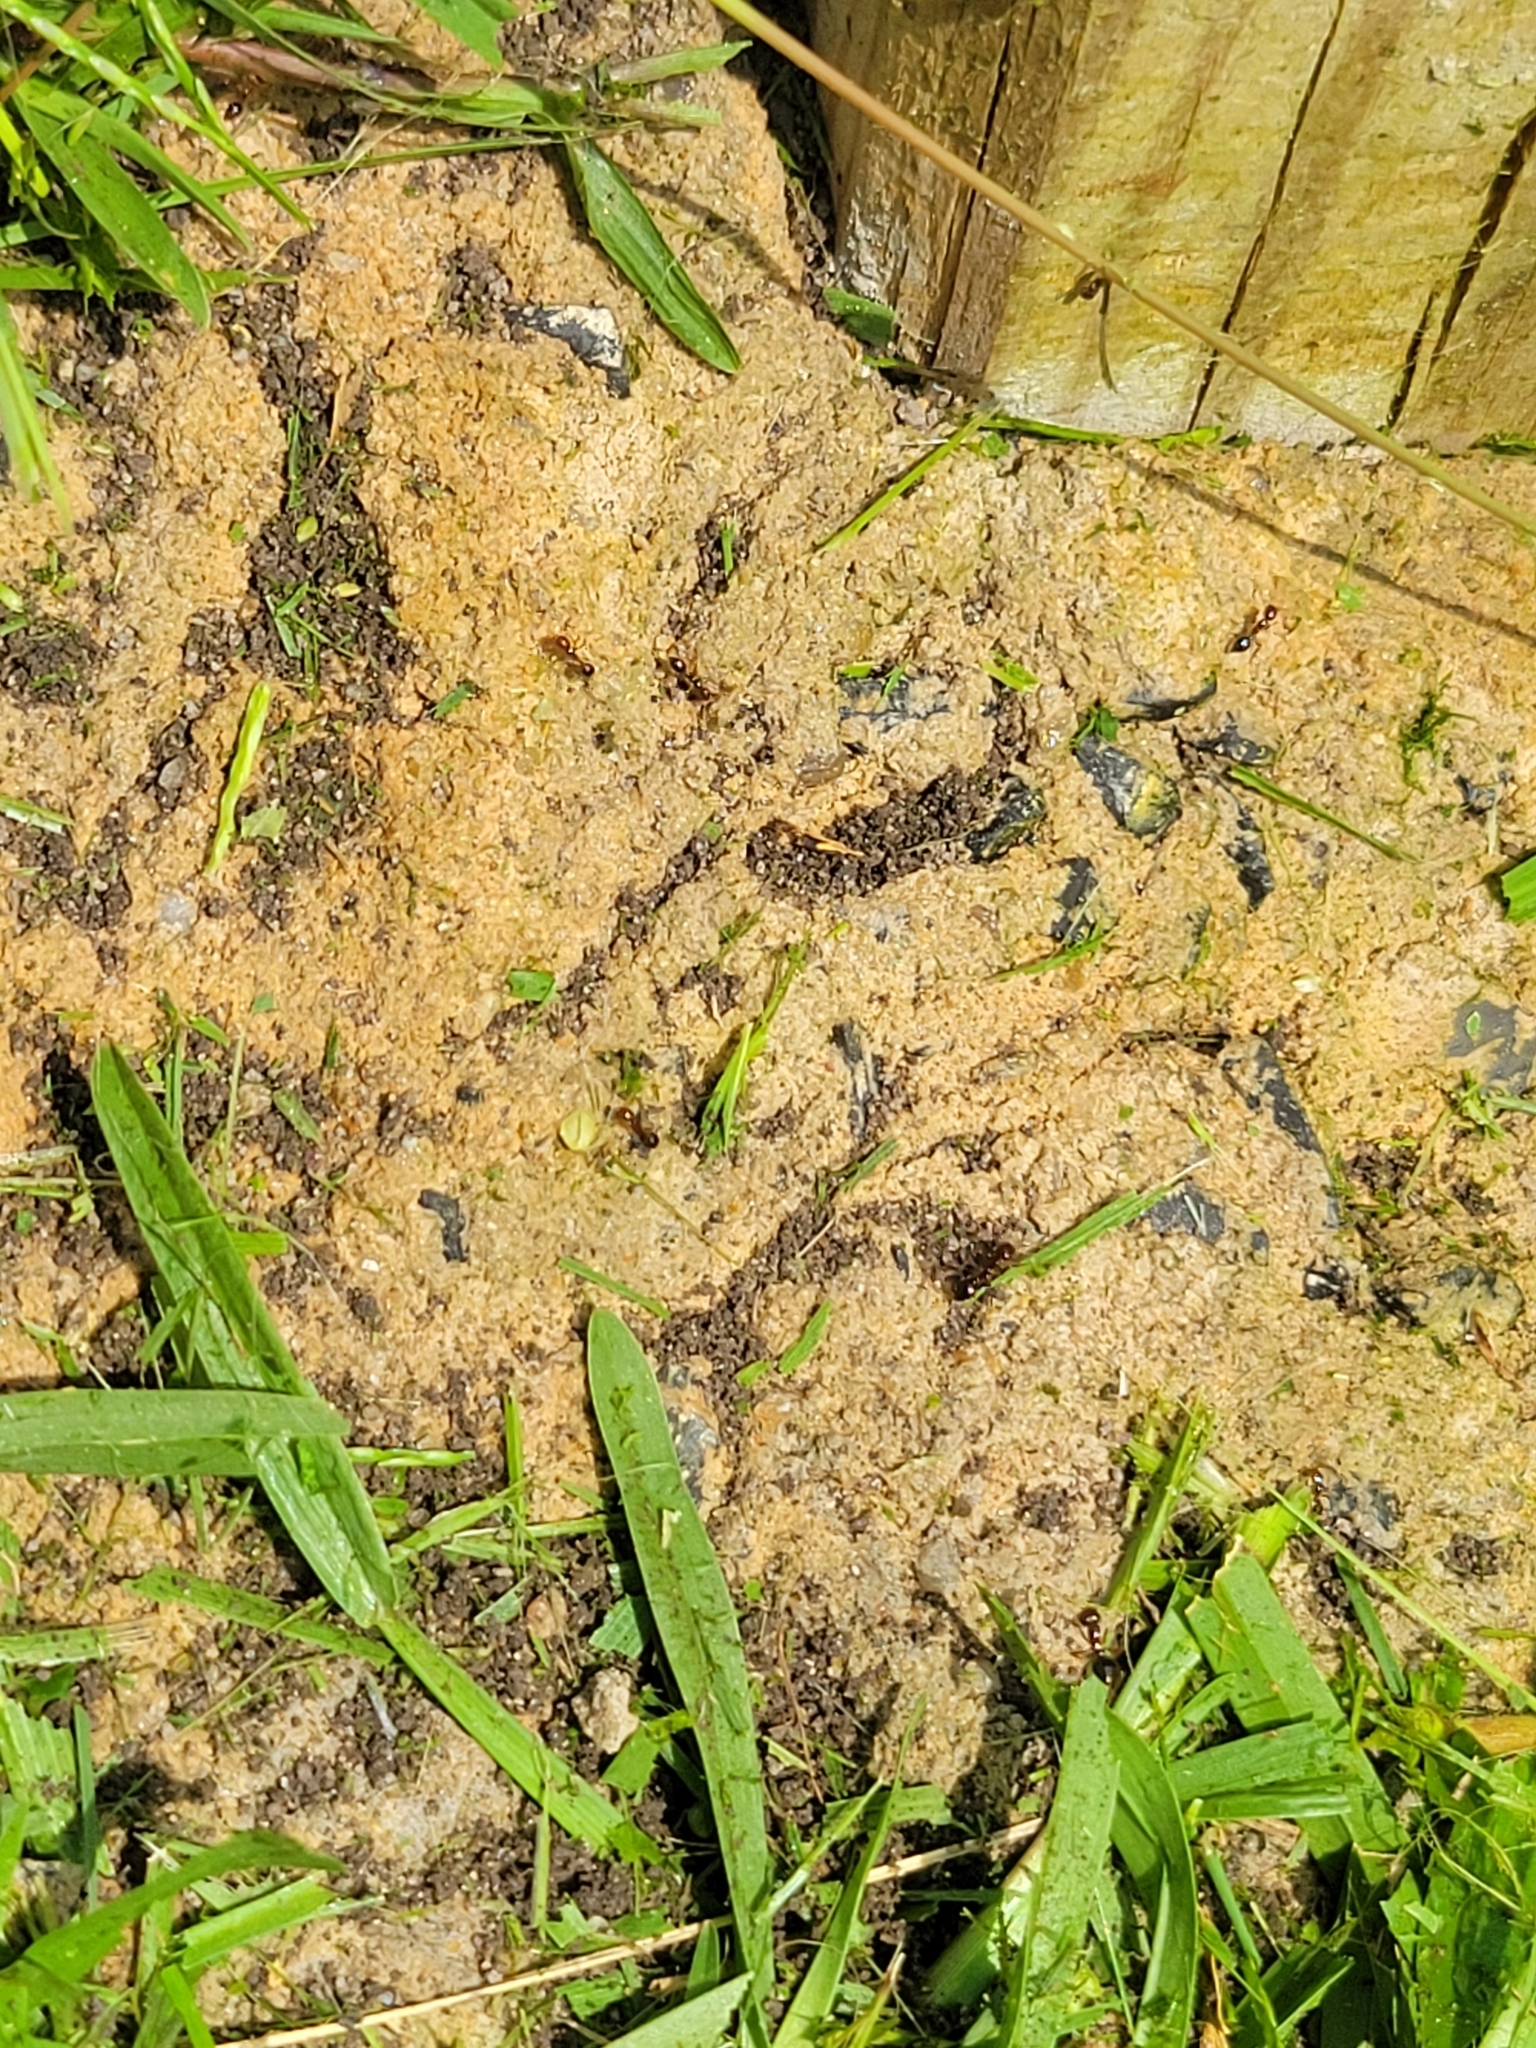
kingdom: Animalia
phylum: Arthropoda
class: Insecta
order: Hymenoptera
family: Formicidae
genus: Solenopsis
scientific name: Solenopsis invicta
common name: Red imported fire ant
